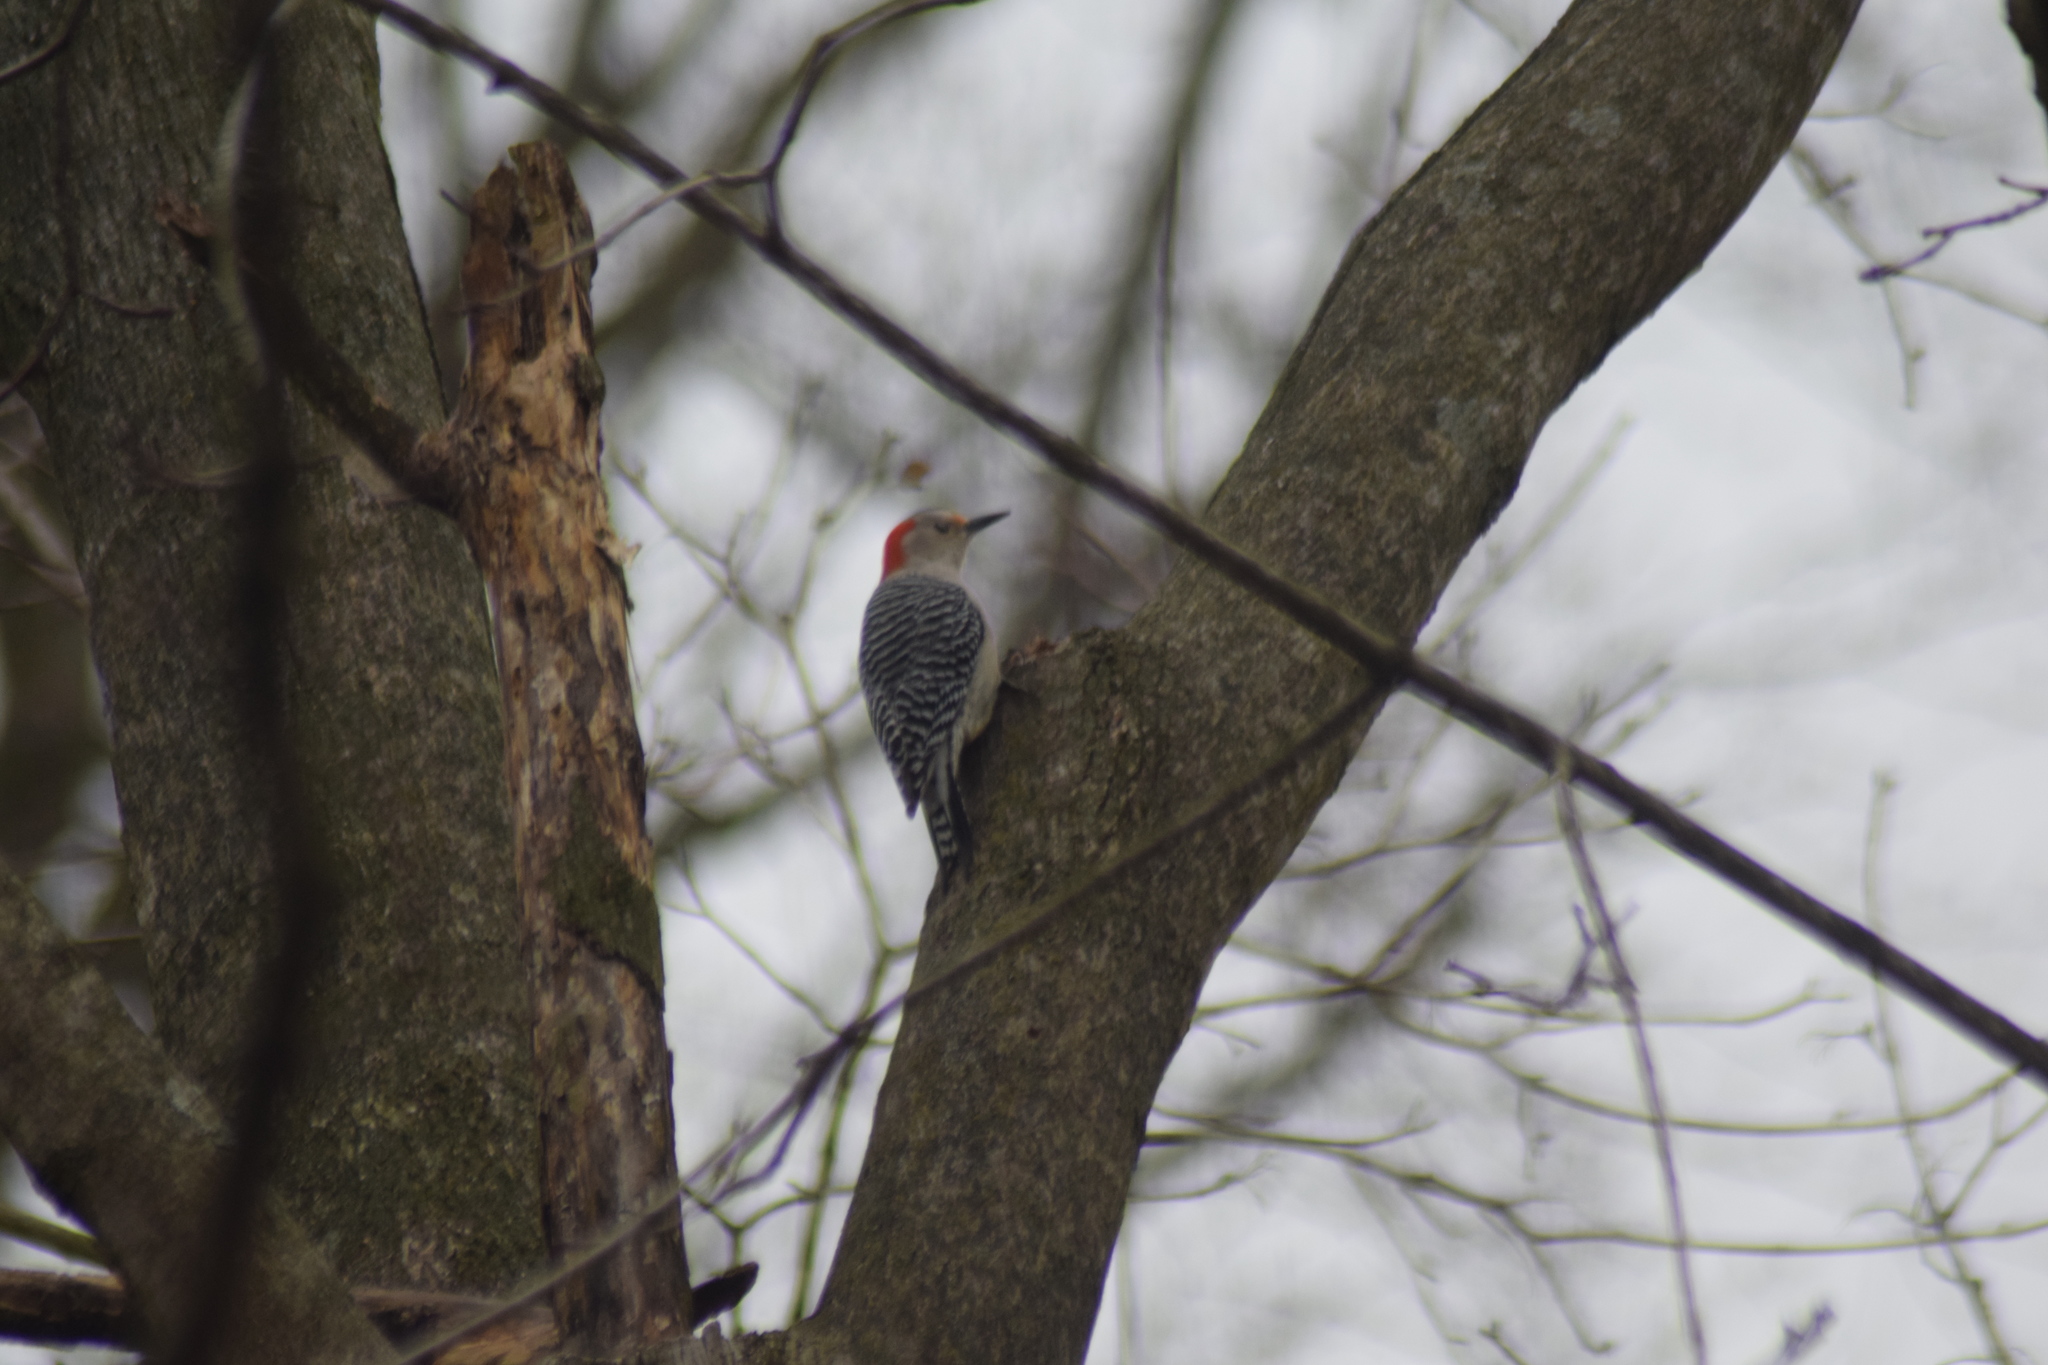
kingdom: Animalia
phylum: Chordata
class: Aves
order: Piciformes
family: Picidae
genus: Melanerpes
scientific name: Melanerpes carolinus
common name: Red-bellied woodpecker
